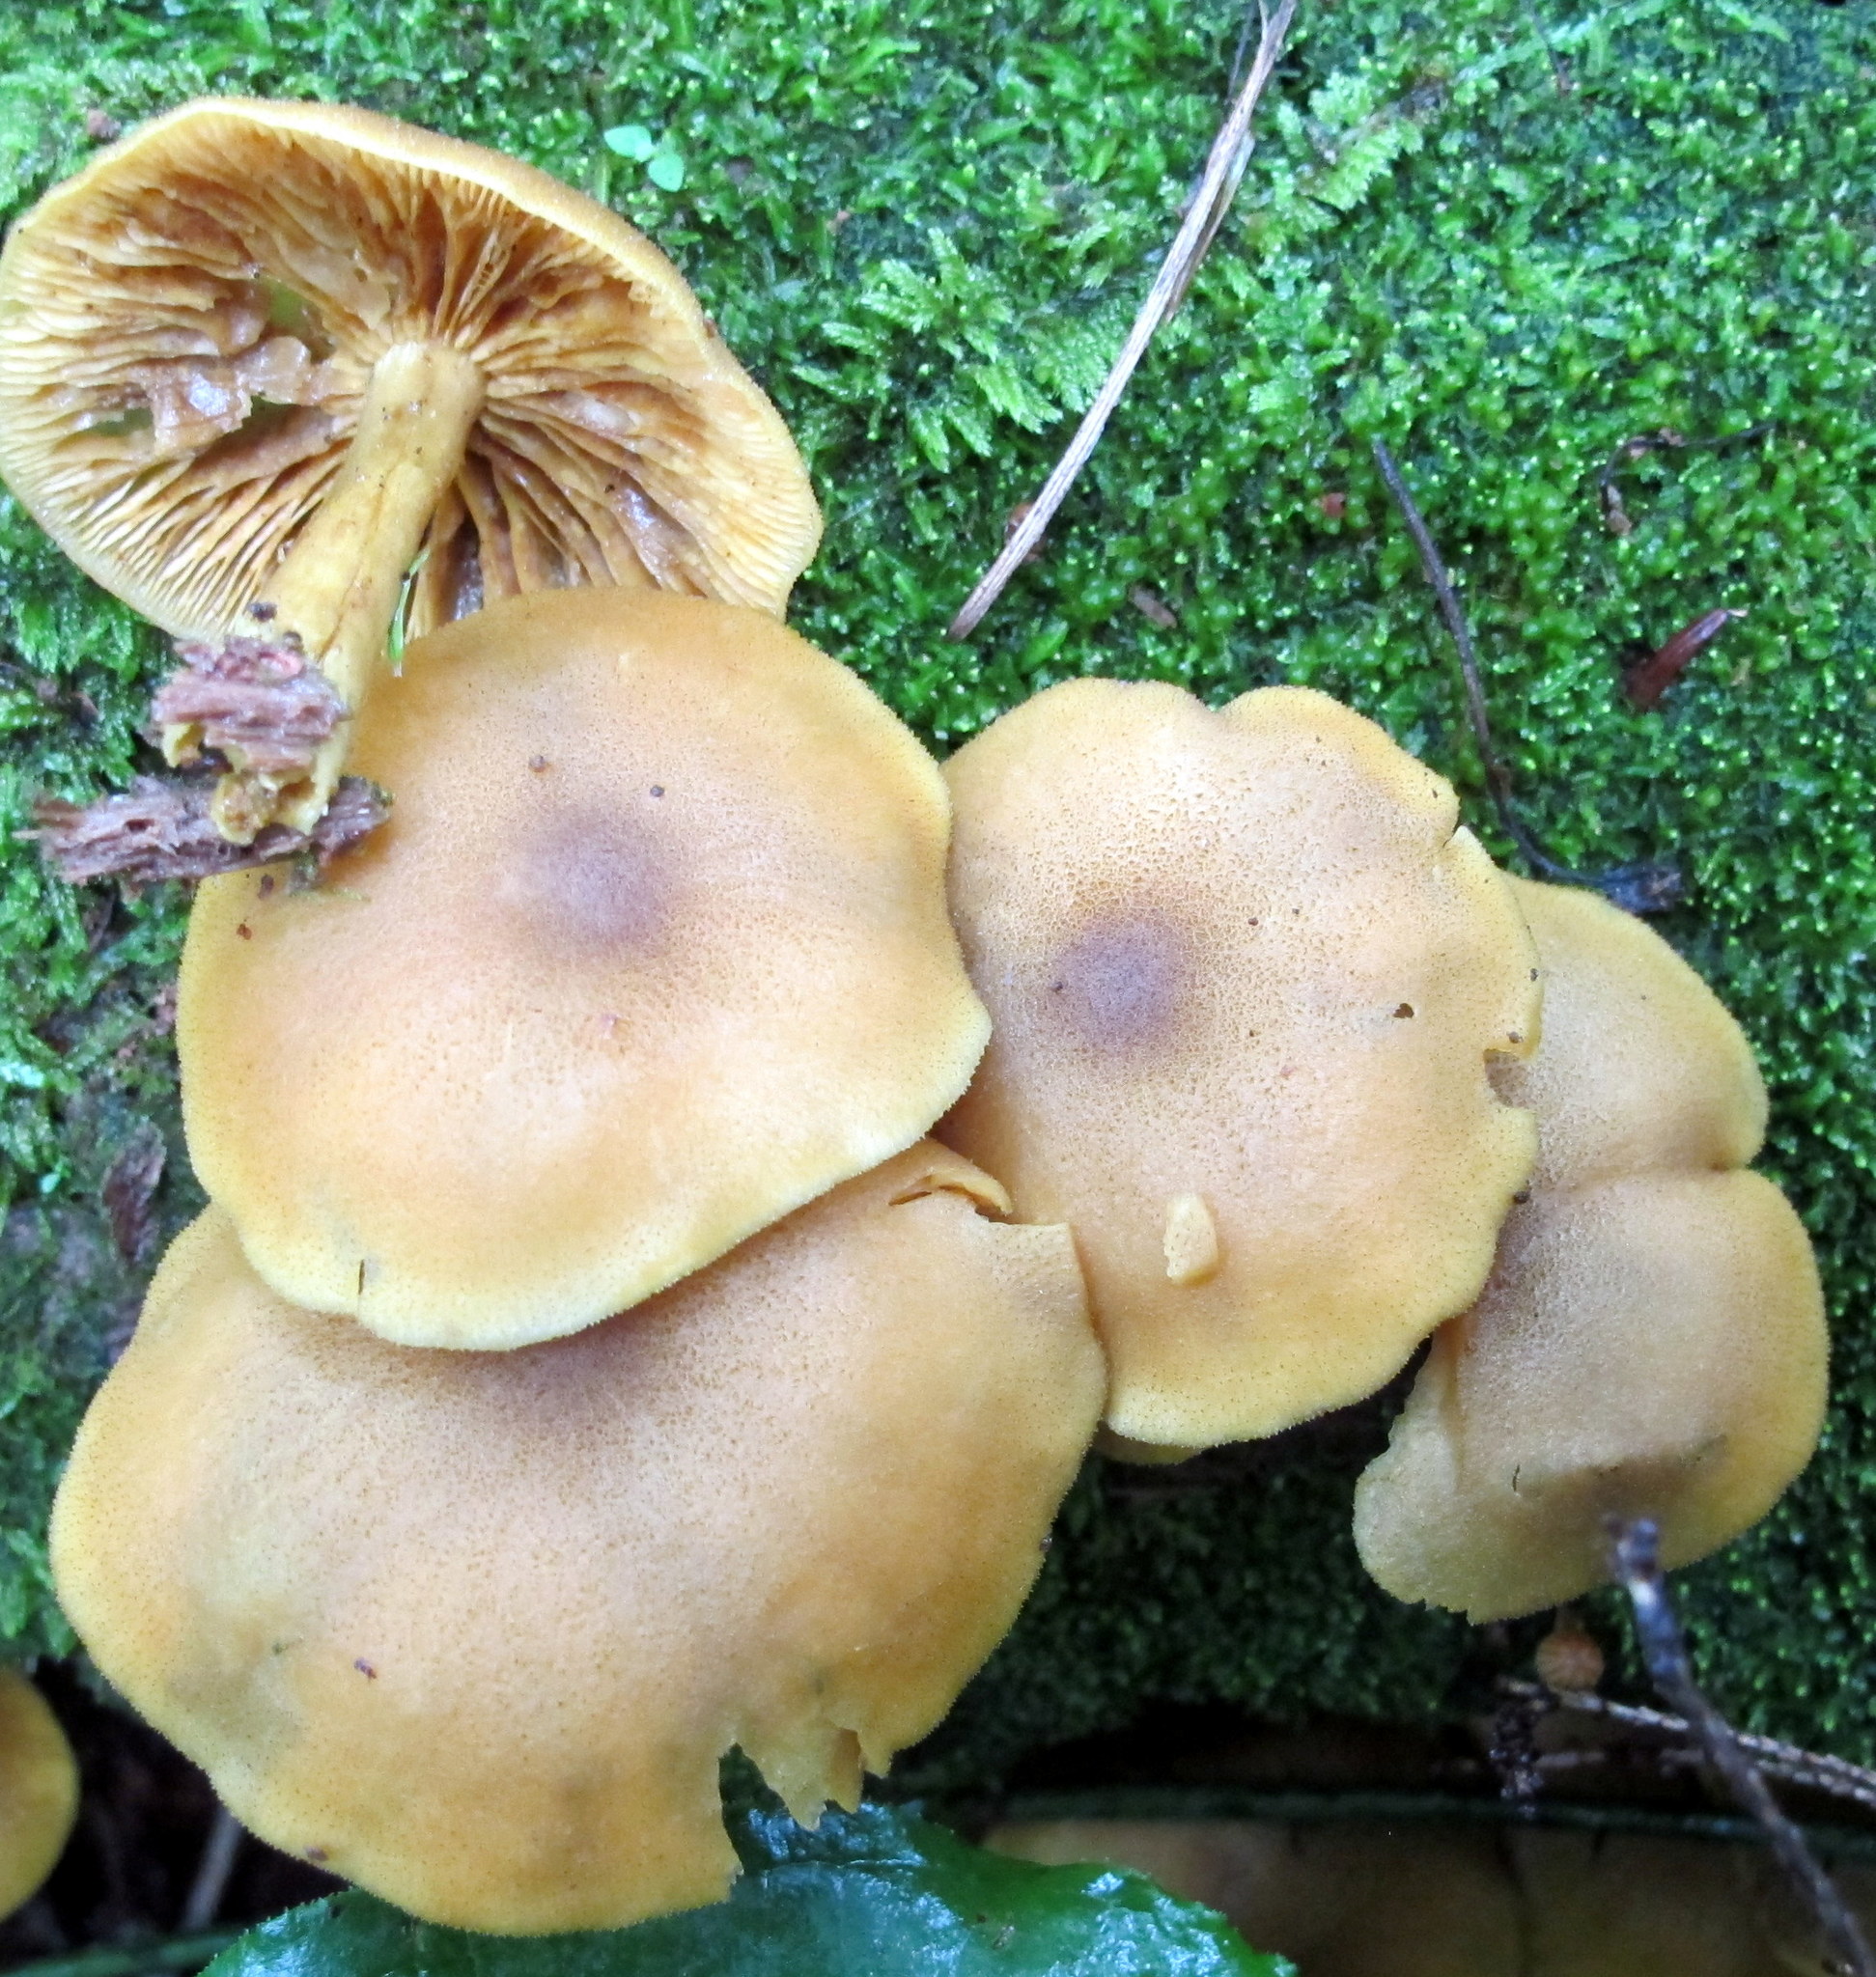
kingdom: Fungi
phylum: Basidiomycota
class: Agaricomycetes
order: Agaricales
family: Tricholomataceae
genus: Tricholomopsis
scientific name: Tricholomopsis decora
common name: Prunes and custard
